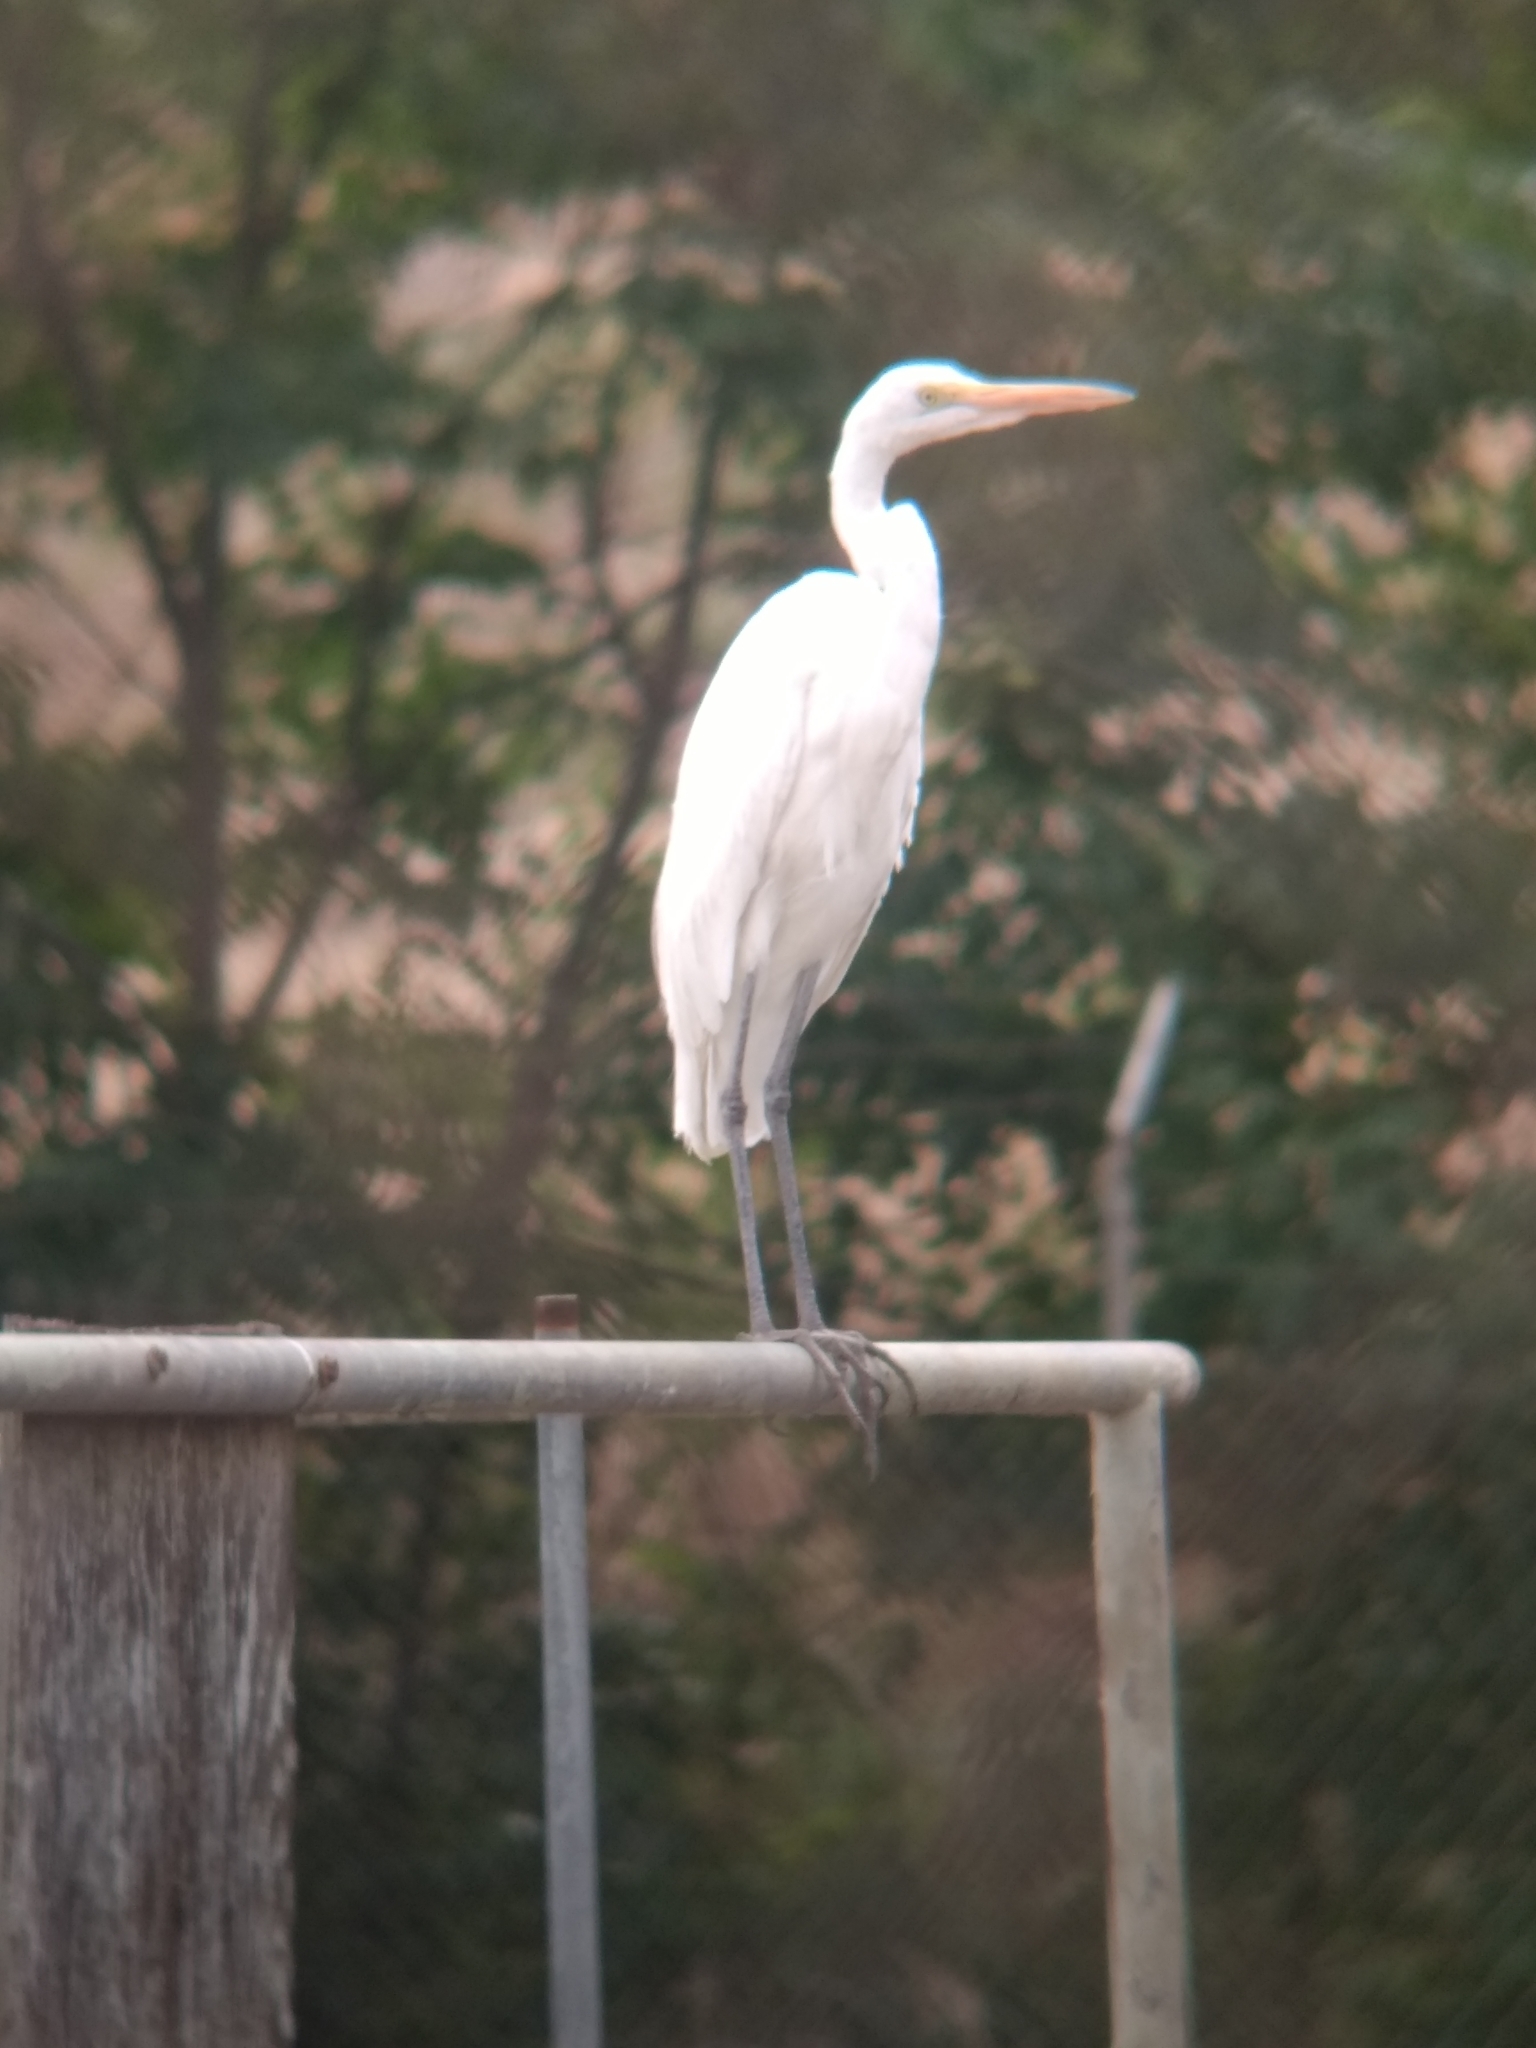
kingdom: Animalia
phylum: Chordata
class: Aves
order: Pelecaniformes
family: Ardeidae
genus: Ardea
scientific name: Ardea alba
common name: Great egret
